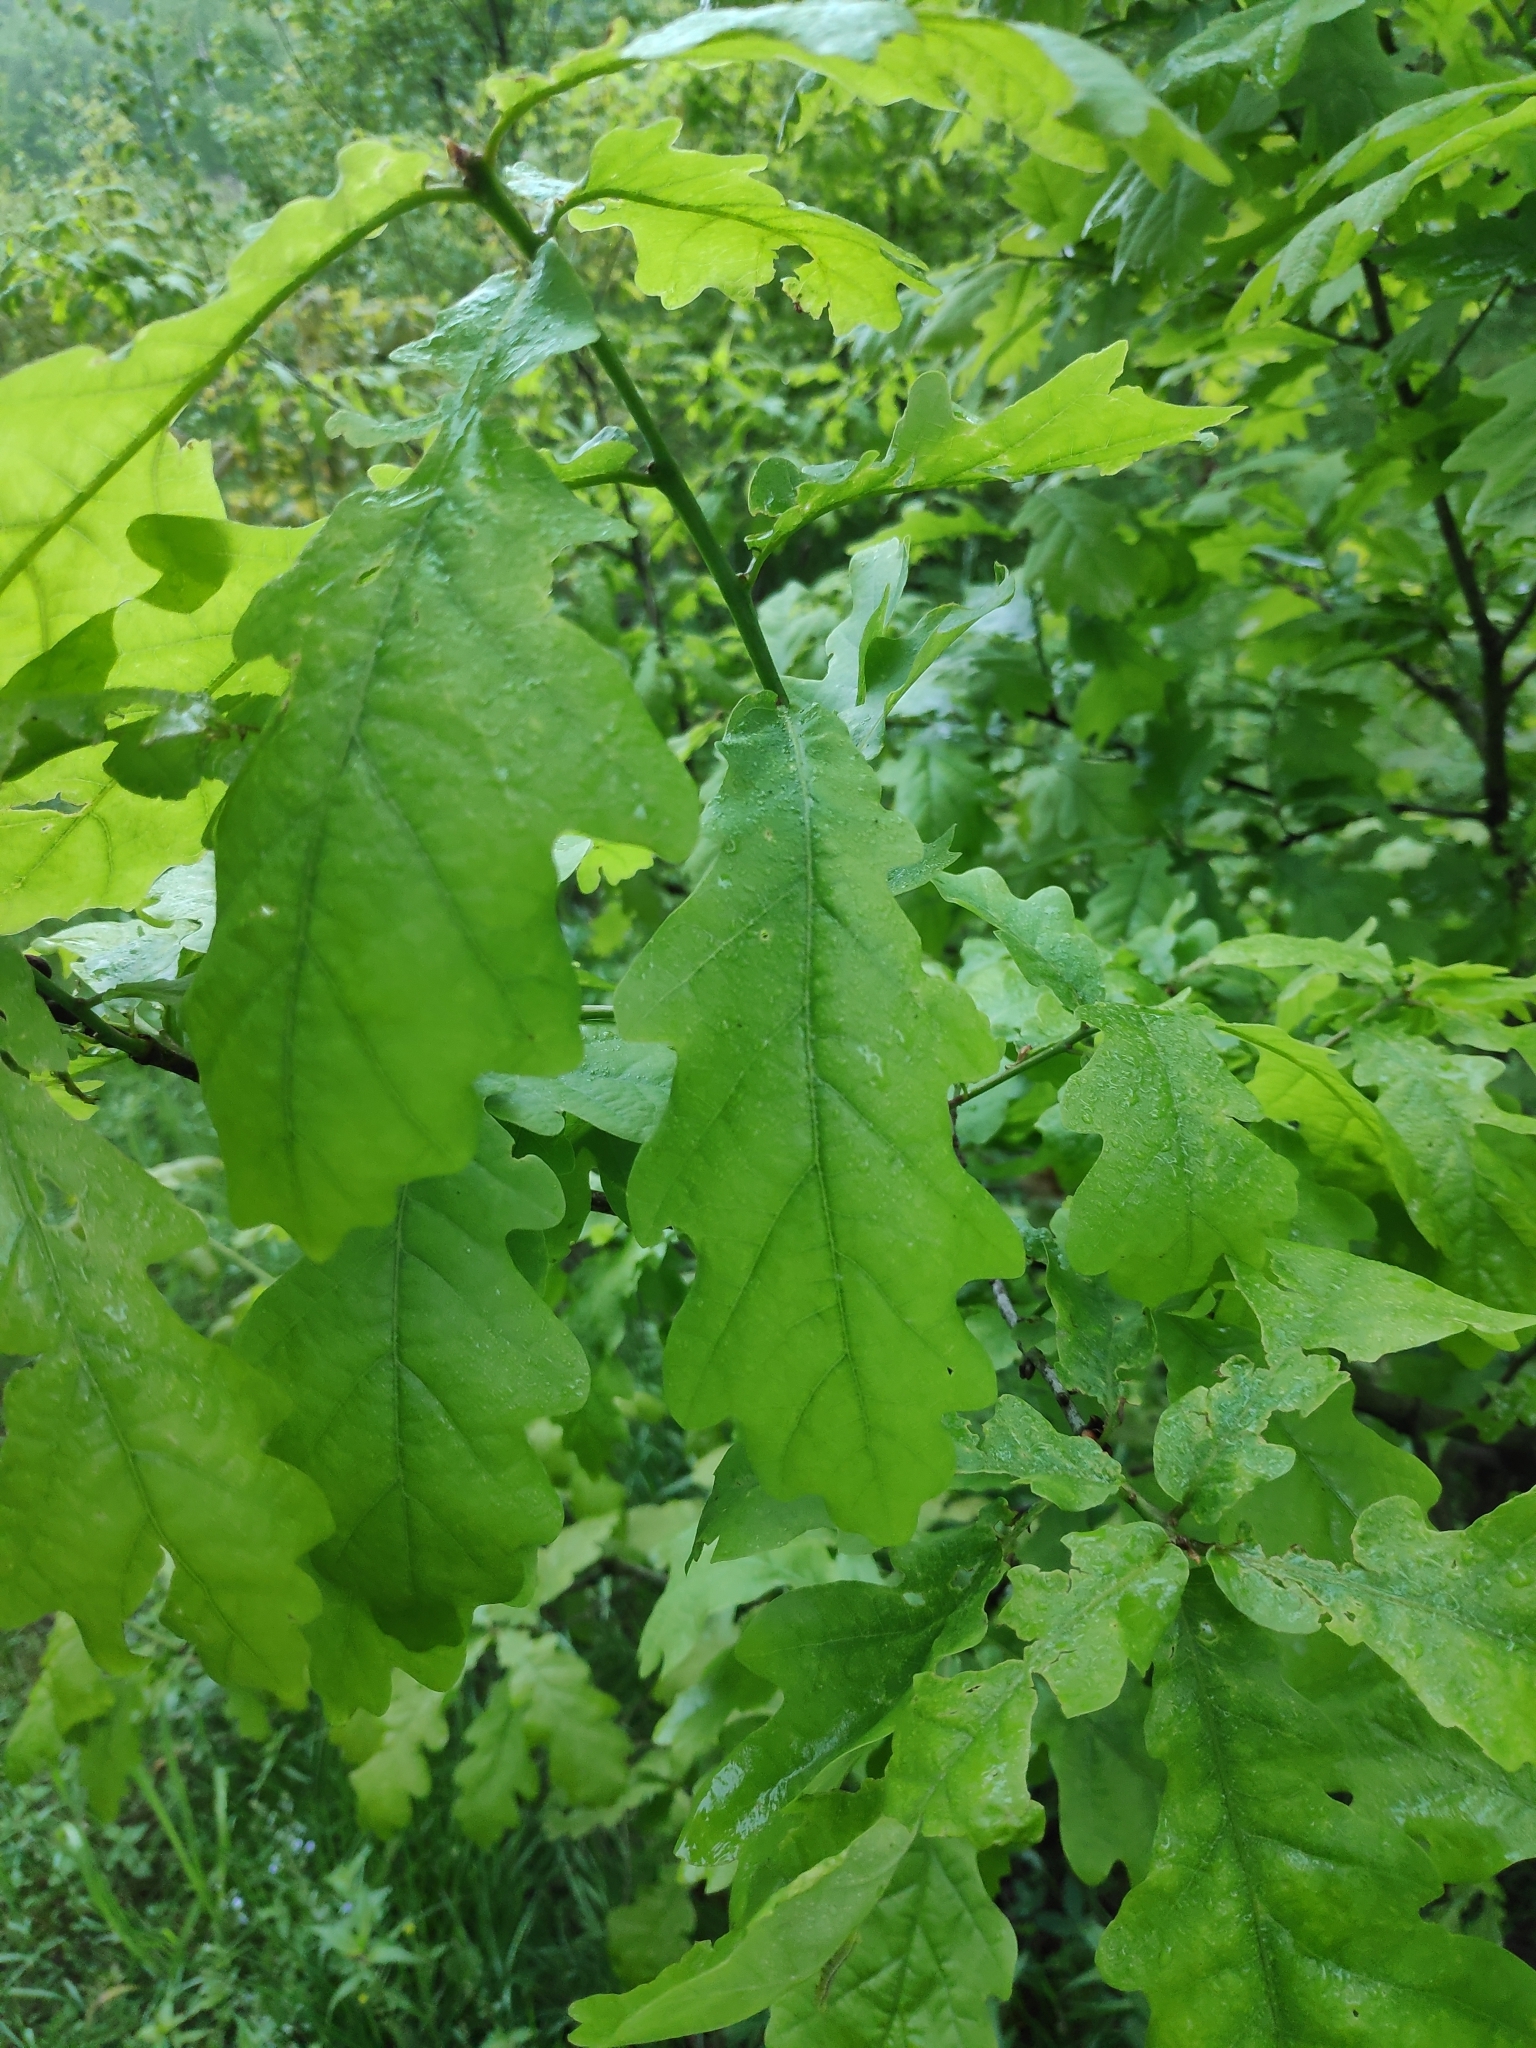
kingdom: Plantae
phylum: Tracheophyta
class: Magnoliopsida
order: Fagales
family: Fagaceae
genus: Quercus
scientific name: Quercus robur
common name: Pedunculate oak
